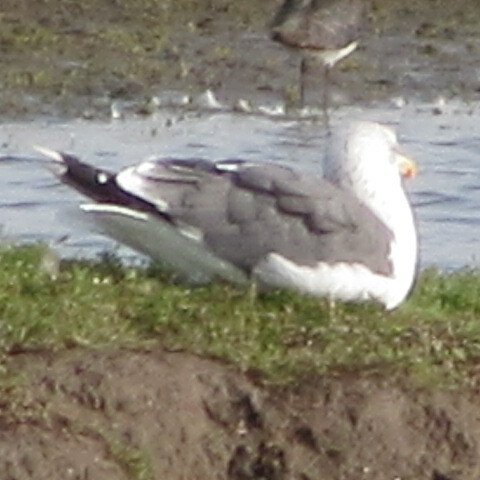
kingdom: Animalia
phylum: Chordata
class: Aves
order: Charadriiformes
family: Laridae
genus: Larus
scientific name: Larus fuscus
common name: Lesser black-backed gull
